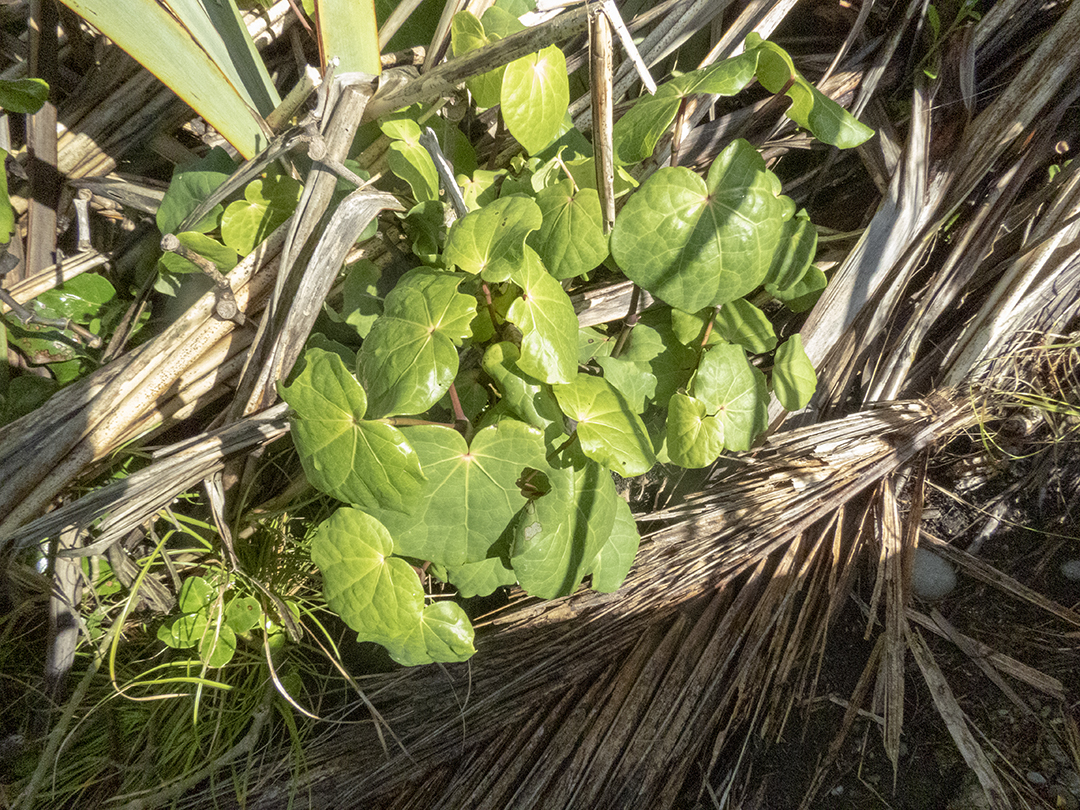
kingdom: Plantae
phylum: Tracheophyta
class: Magnoliopsida
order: Piperales
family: Piperaceae
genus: Macropiper
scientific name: Macropiper excelsum
